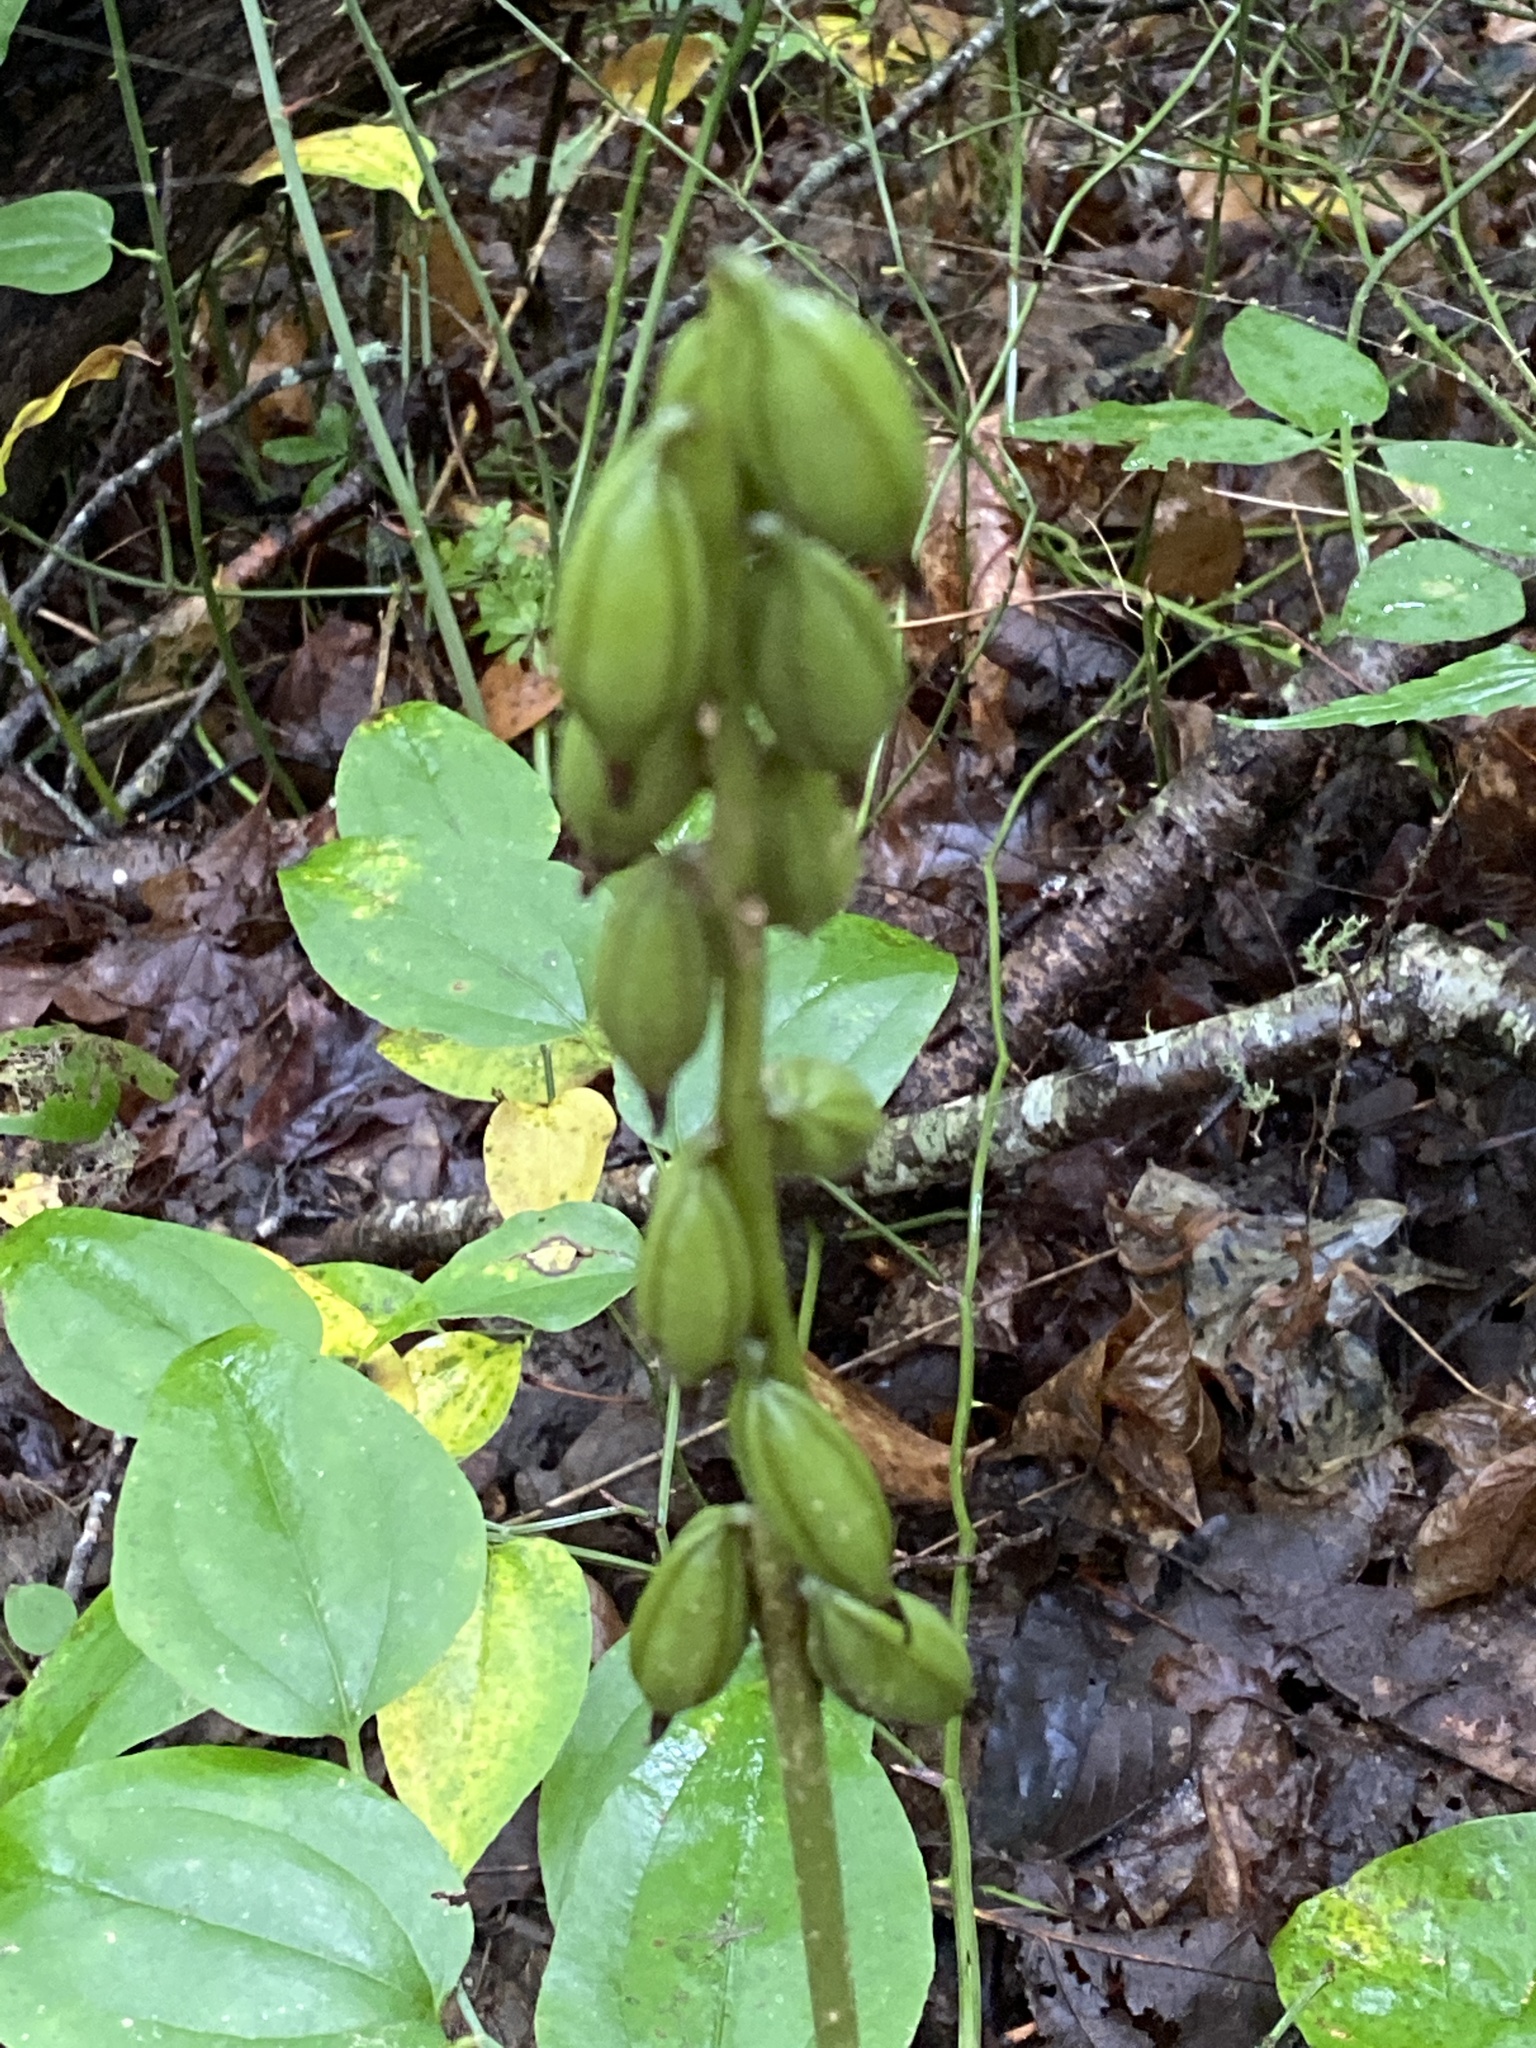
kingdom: Plantae
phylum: Tracheophyta
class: Liliopsida
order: Asparagales
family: Orchidaceae
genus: Aplectrum
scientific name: Aplectrum hyemale
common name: Adam-and-eve
